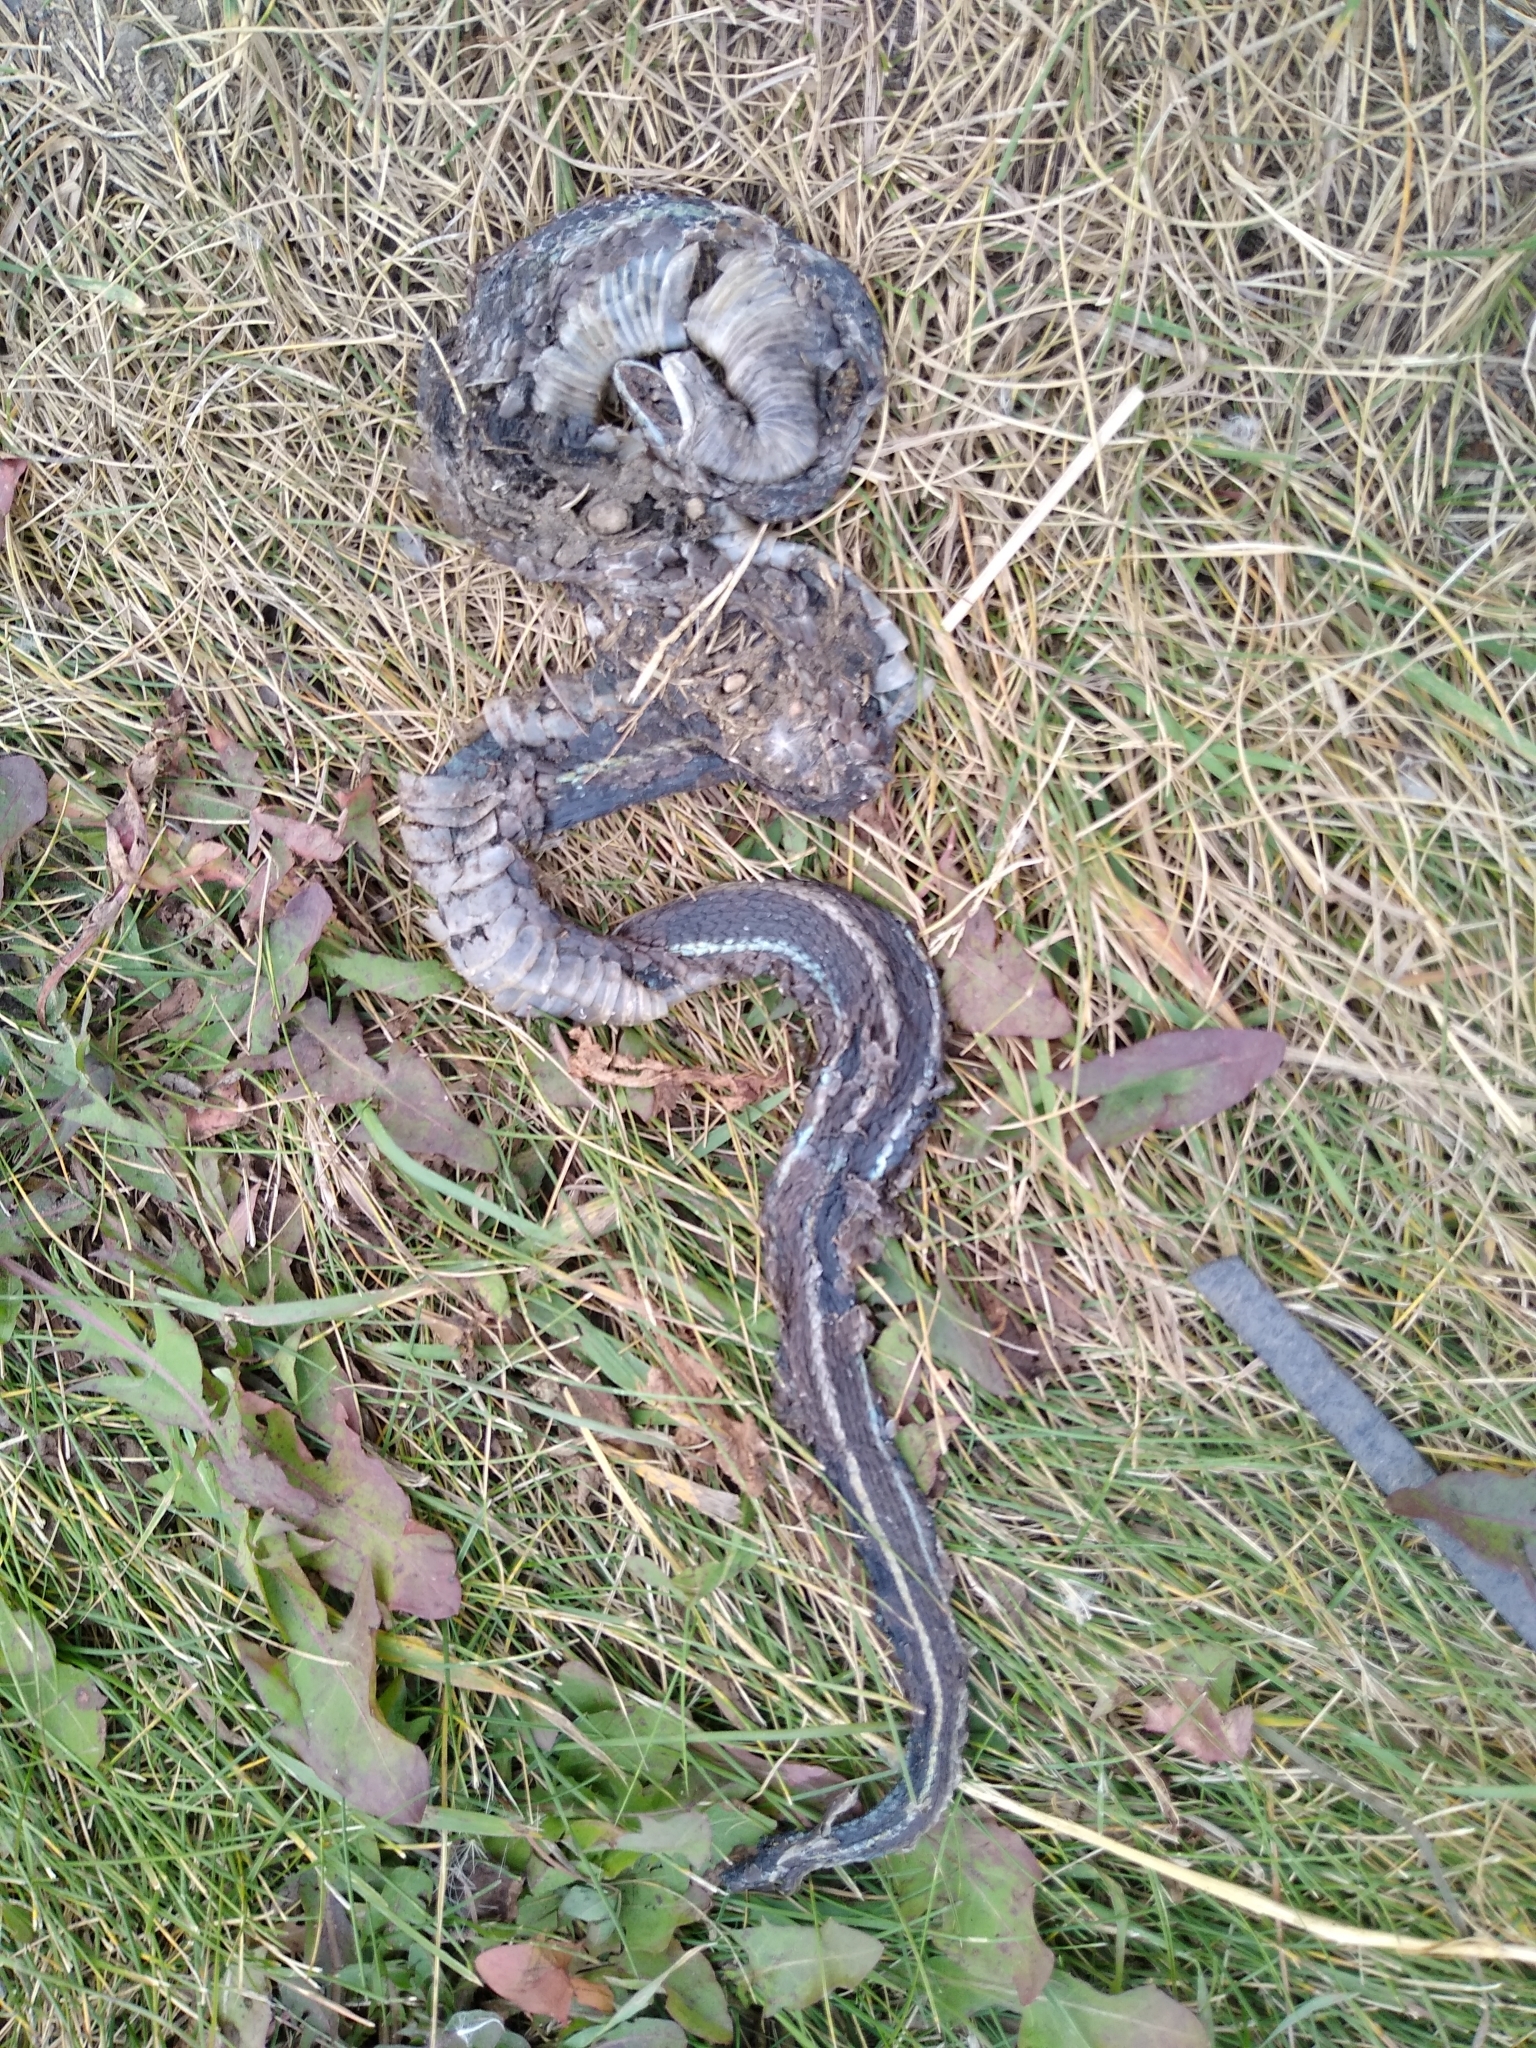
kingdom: Animalia
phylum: Chordata
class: Squamata
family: Colubridae
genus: Thamnophis
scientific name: Thamnophis radix
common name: Plains garter snake
